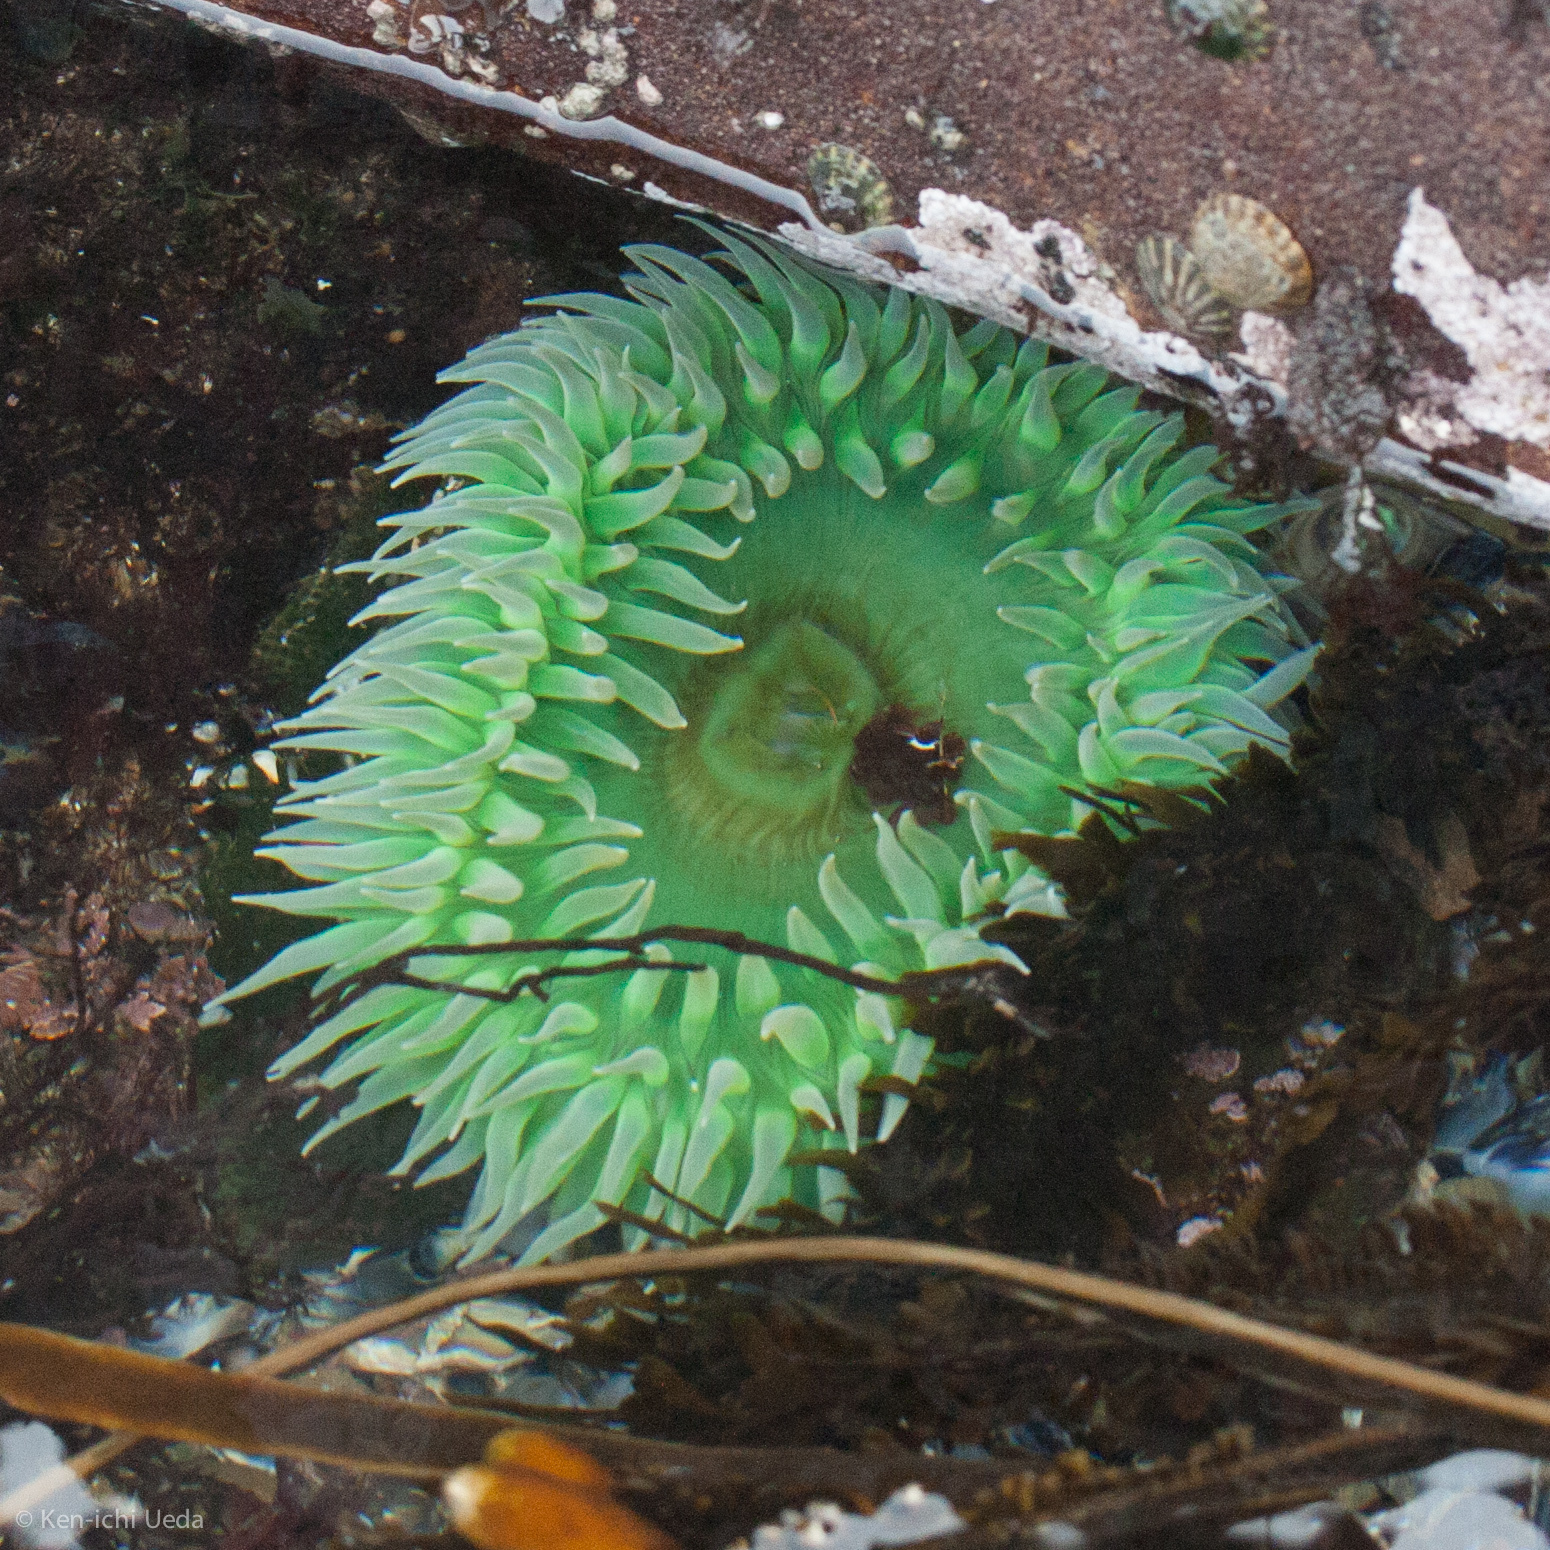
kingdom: Animalia
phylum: Cnidaria
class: Anthozoa
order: Actiniaria
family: Actiniidae
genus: Anthopleura
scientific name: Anthopleura xanthogrammica
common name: Giant green anemone
